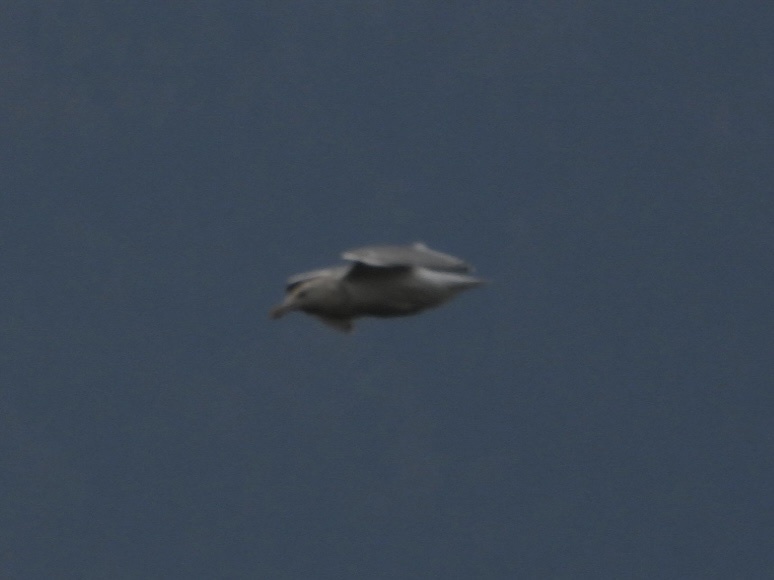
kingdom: Animalia
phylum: Chordata
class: Aves
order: Charadriiformes
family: Laridae
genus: Larus
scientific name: Larus glaucescens
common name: Glaucous-winged gull
